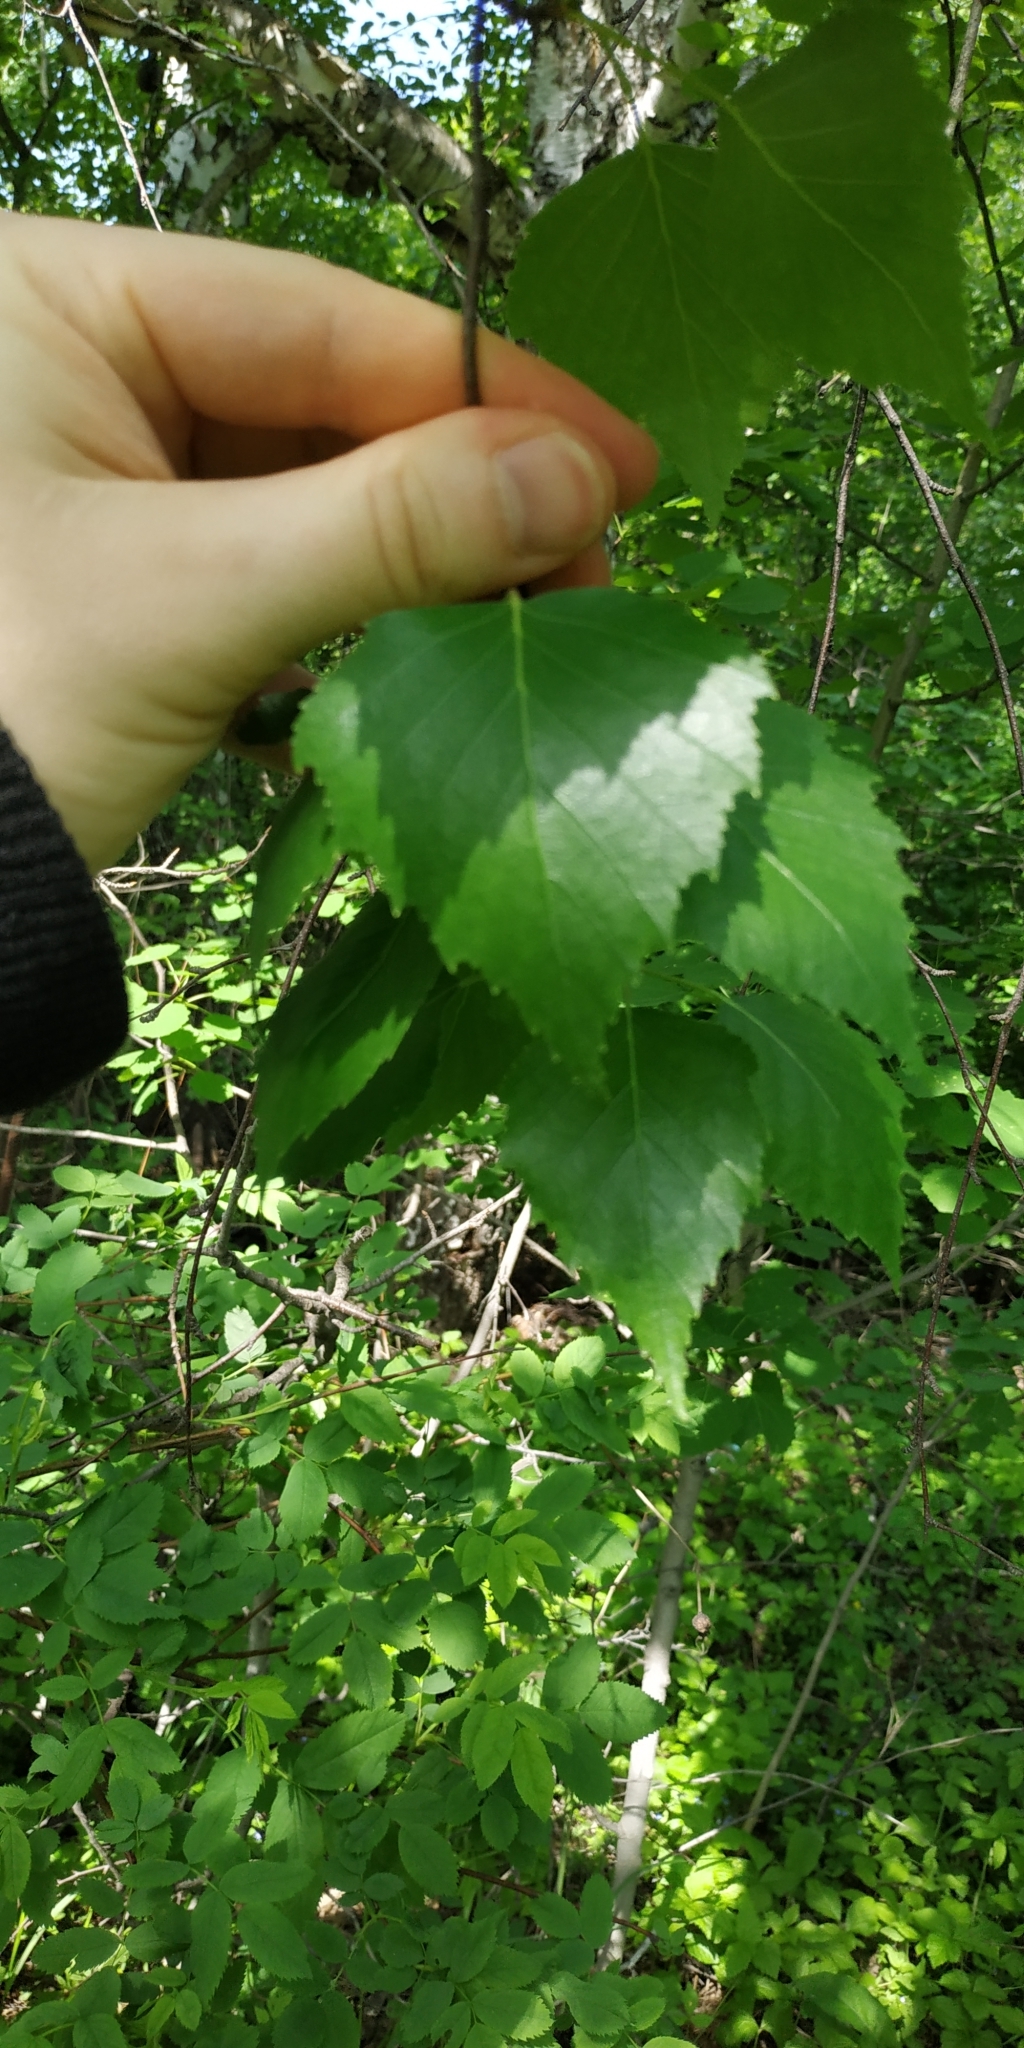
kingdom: Plantae
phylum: Tracheophyta
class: Magnoliopsida
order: Fagales
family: Betulaceae
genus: Betula
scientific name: Betula pendula
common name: Silver birch
